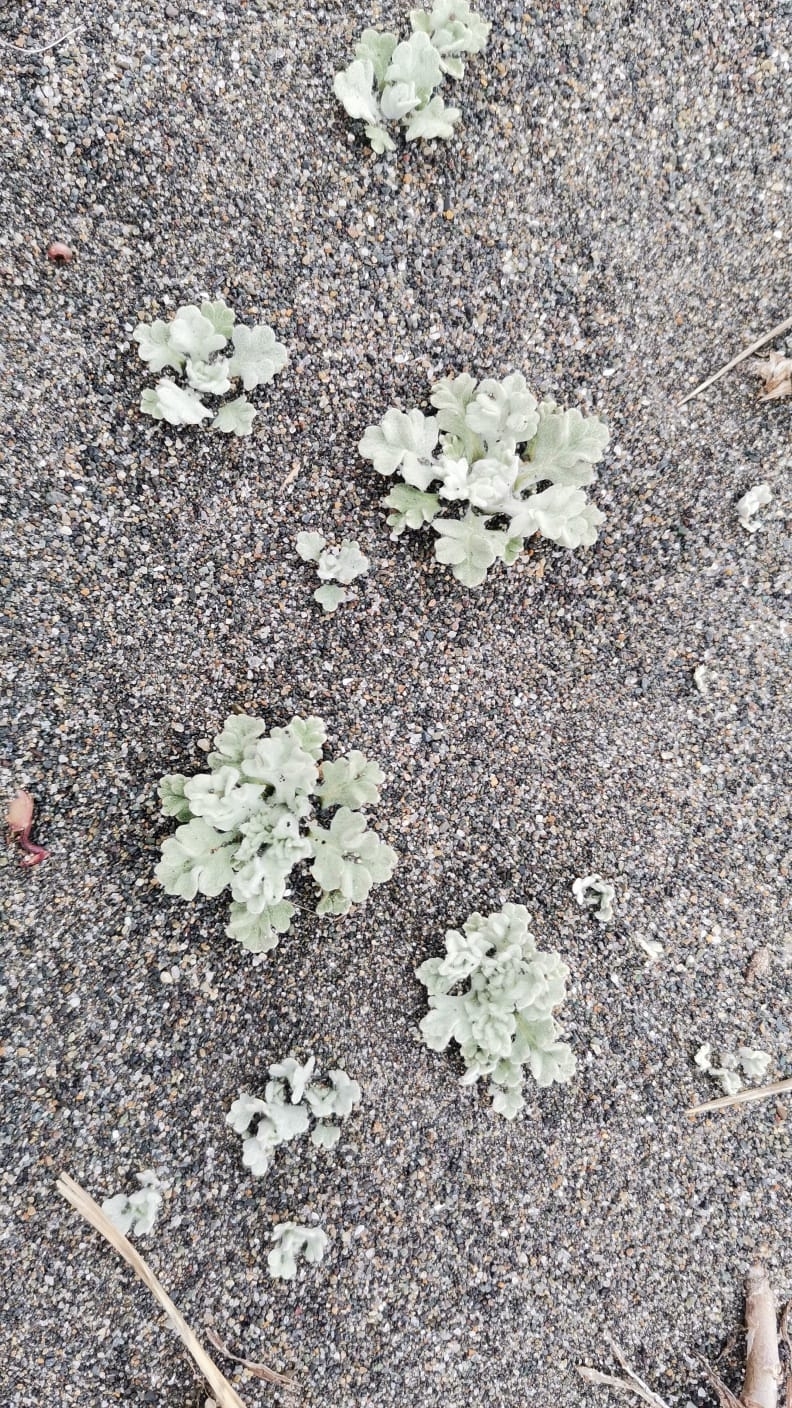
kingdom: Plantae
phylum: Tracheophyta
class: Magnoliopsida
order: Asterales
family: Asteraceae
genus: Artemisia
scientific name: Artemisia stelleriana
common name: Beach wormwood
